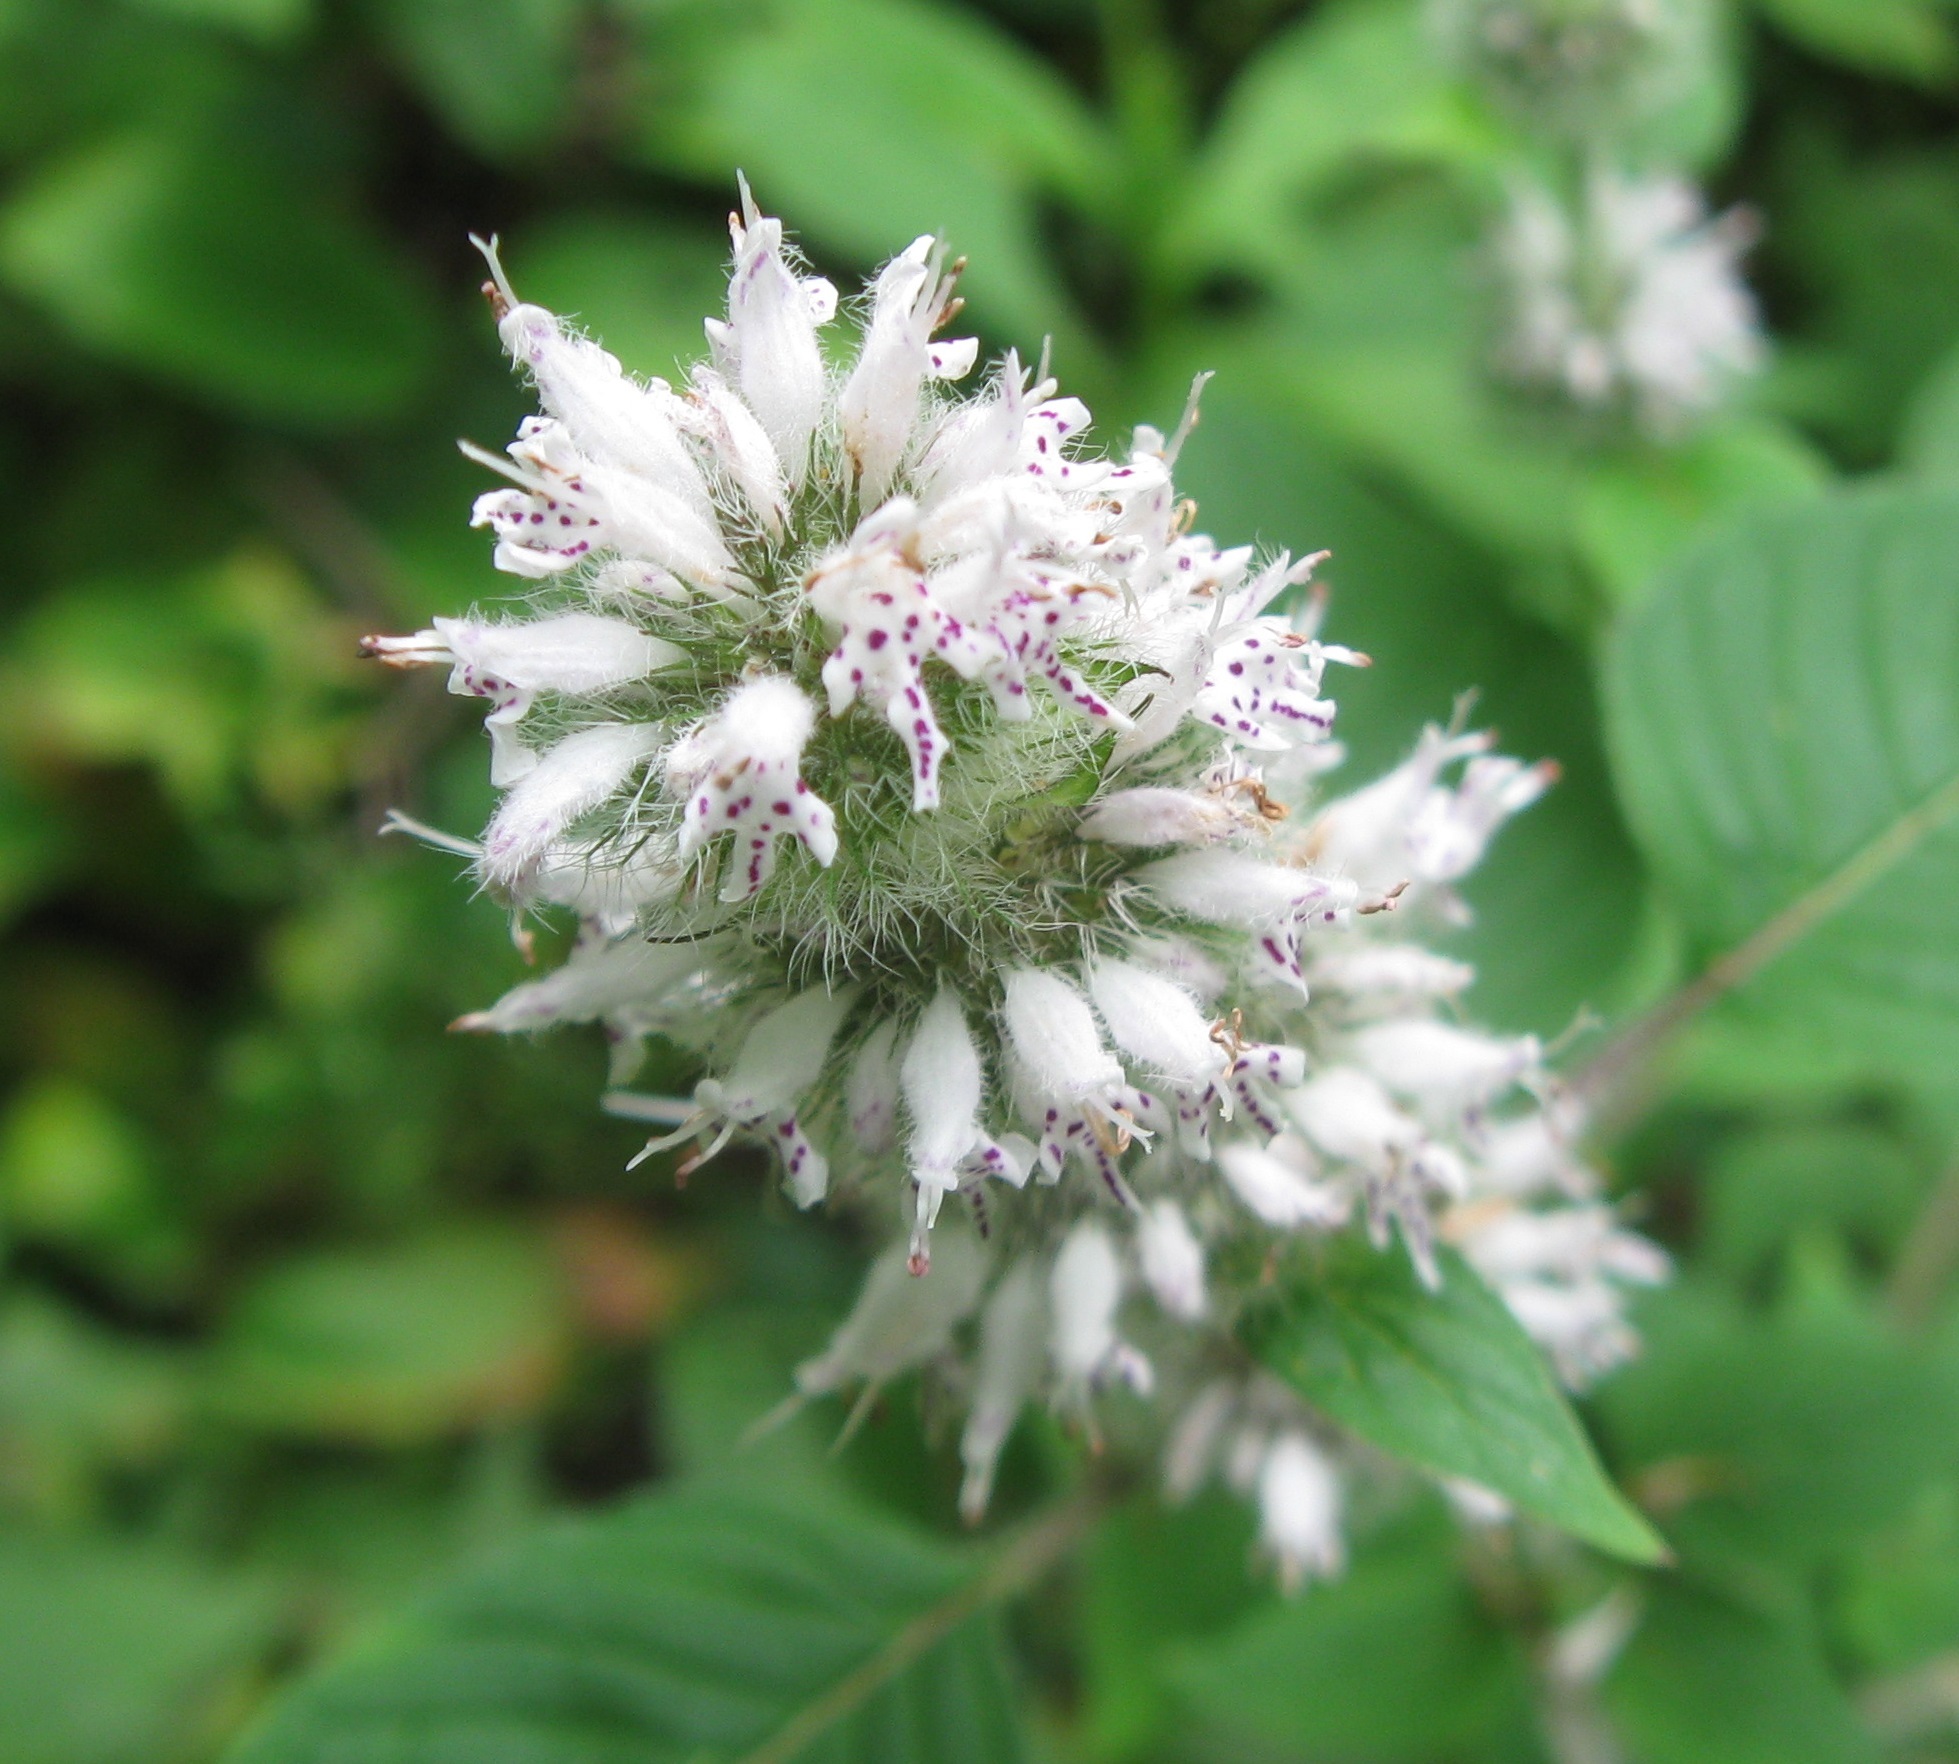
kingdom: Plantae
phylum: Tracheophyta
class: Magnoliopsida
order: Lamiales
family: Lamiaceae
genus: Blephilia
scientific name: Blephilia hirsuta
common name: Hairy blephilia
